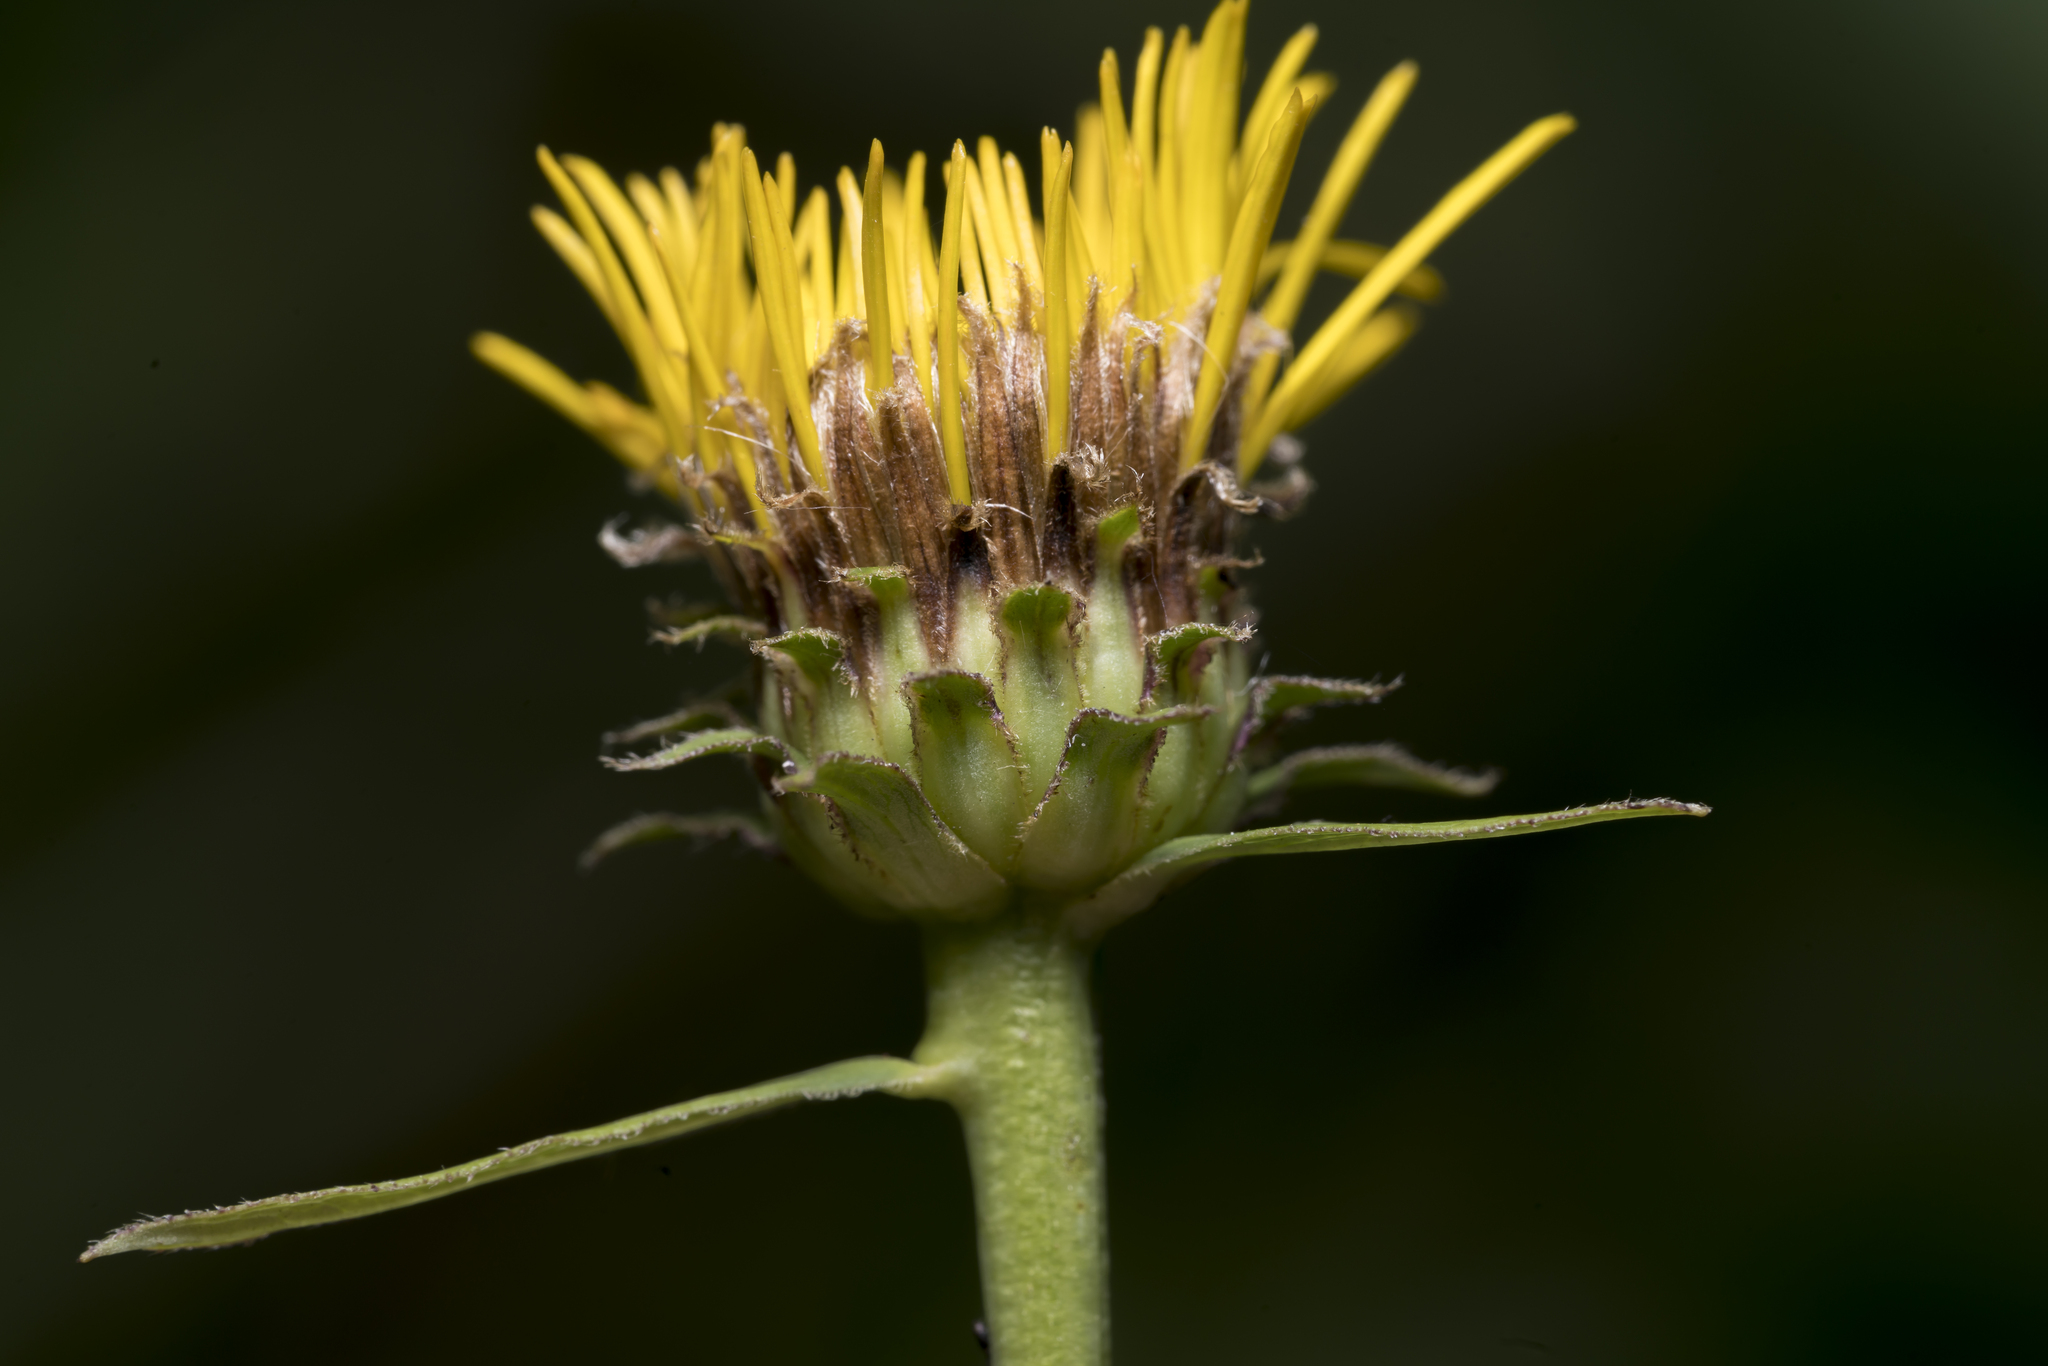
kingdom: Plantae
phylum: Tracheophyta
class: Magnoliopsida
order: Asterales
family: Asteraceae
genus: Pentanema
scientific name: Pentanema salicinum
